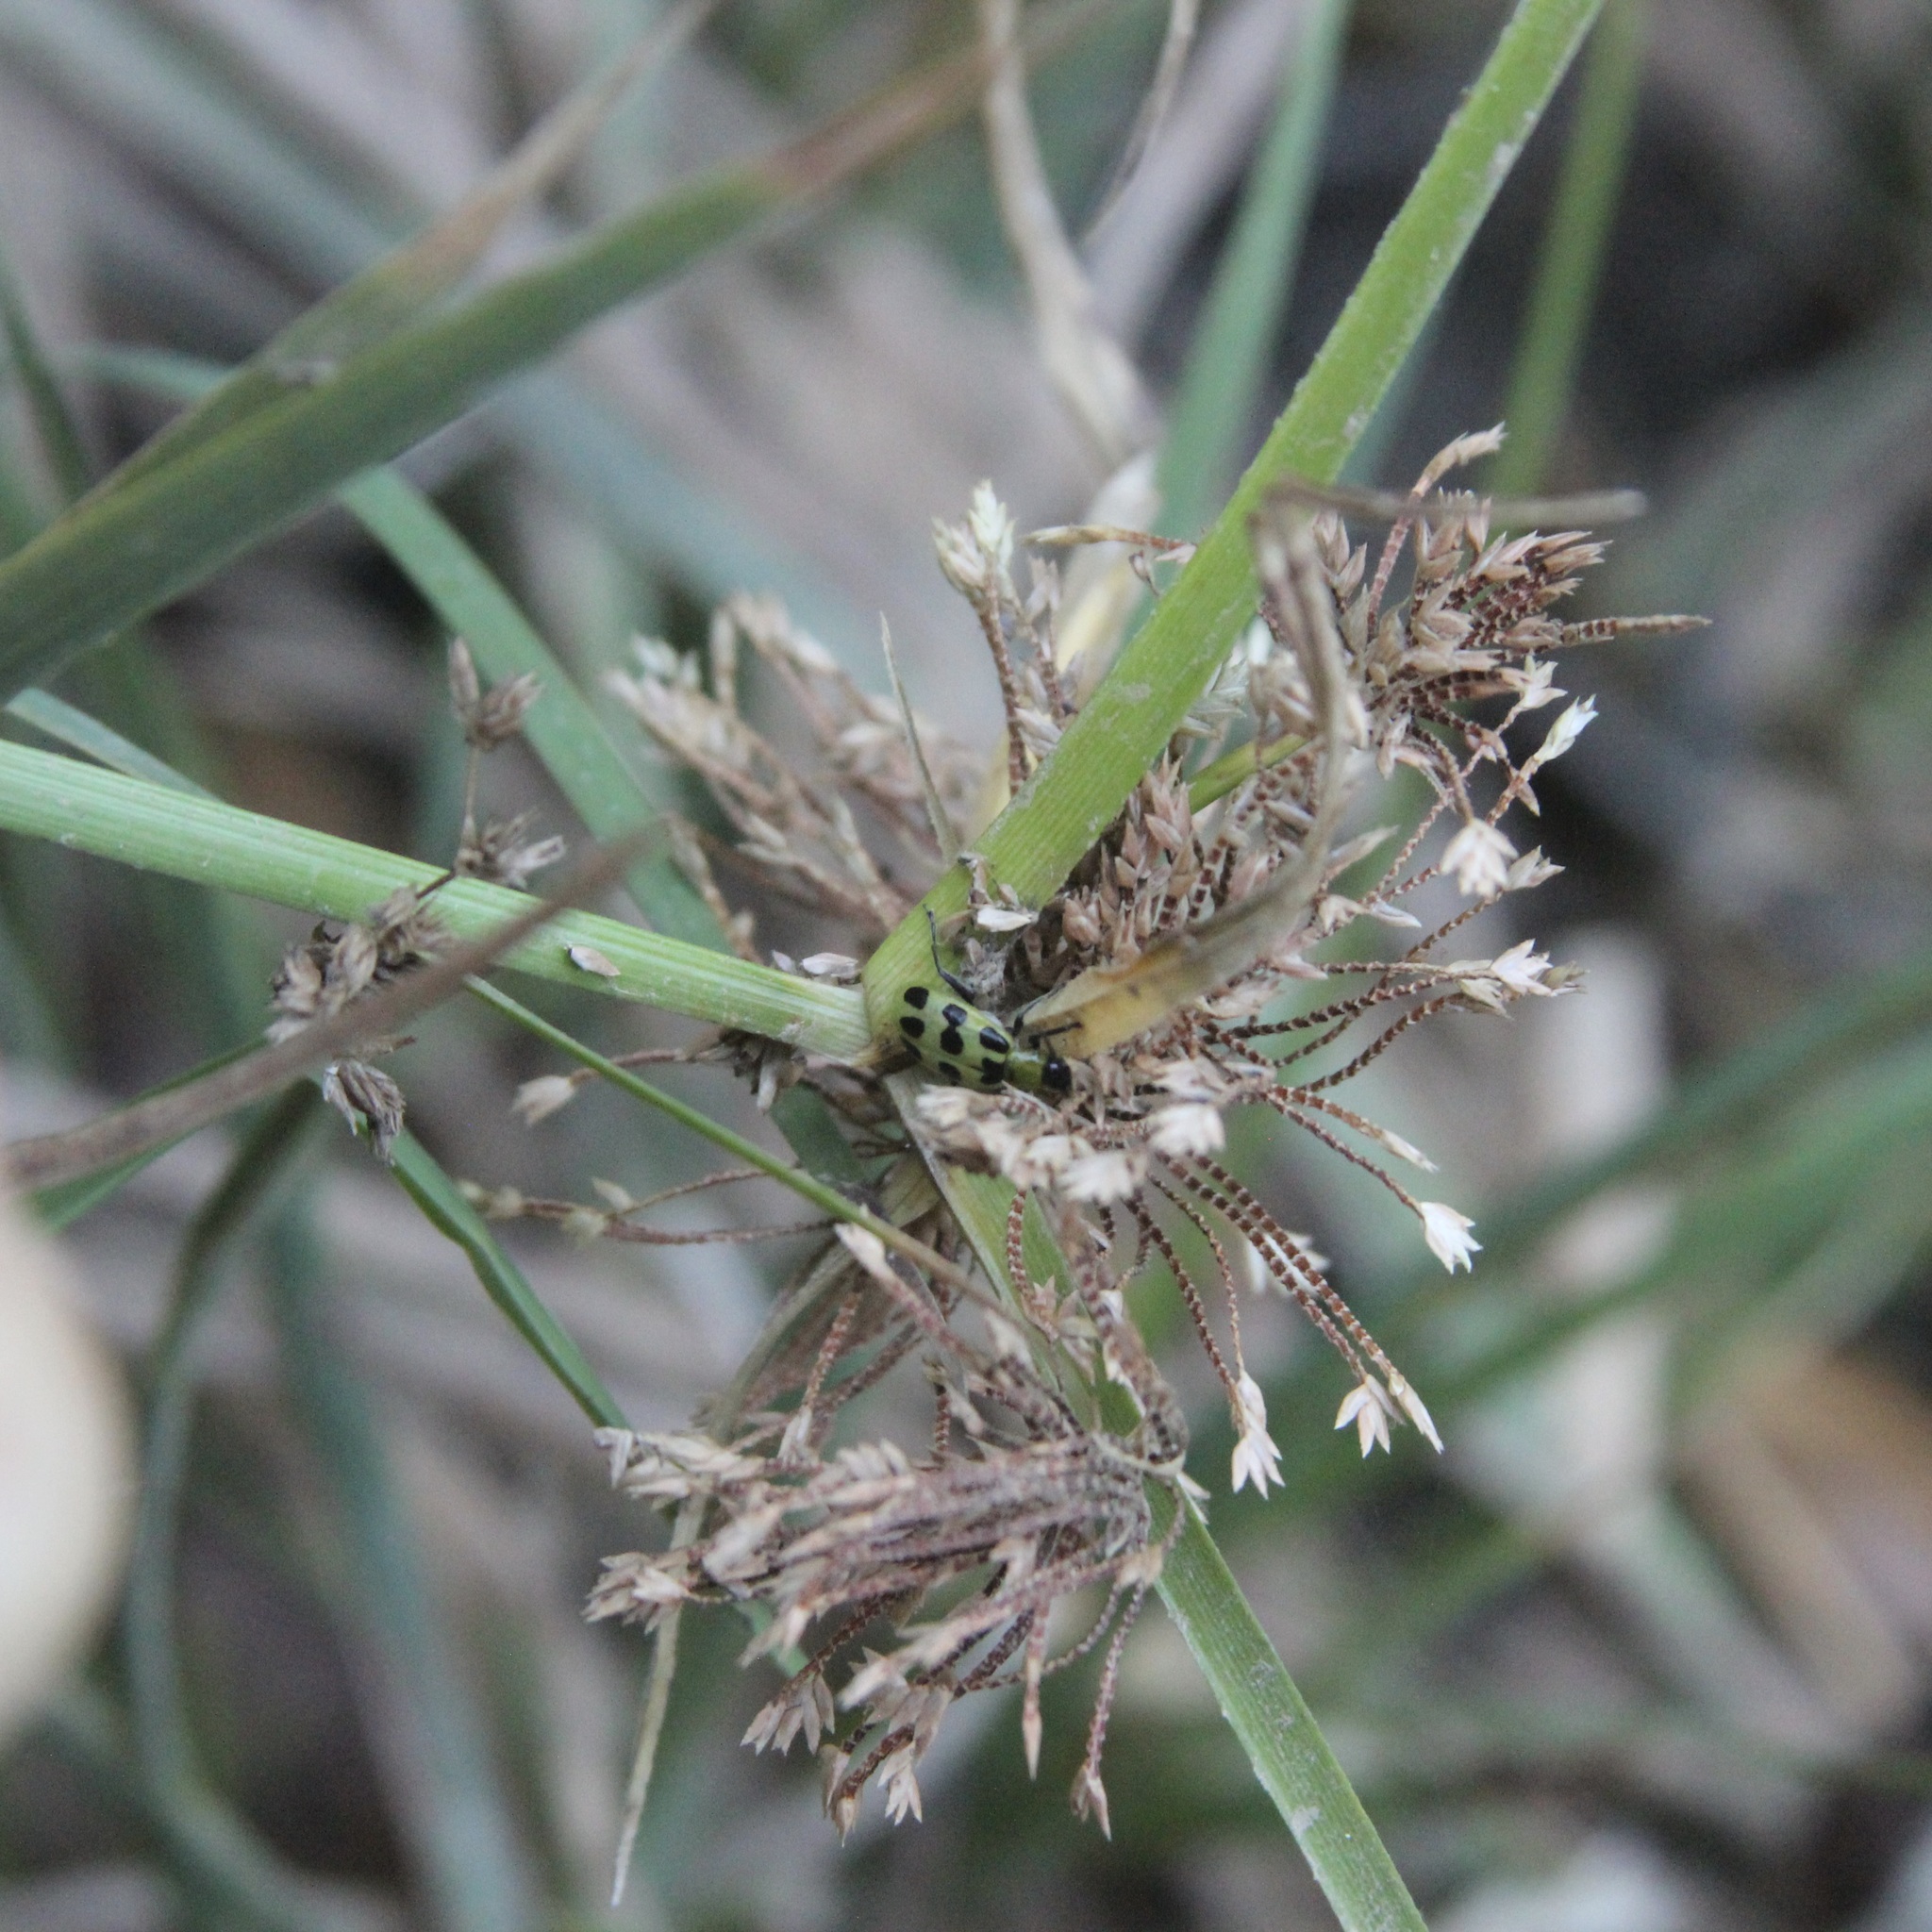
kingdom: Animalia
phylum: Arthropoda
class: Insecta
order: Coleoptera
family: Chrysomelidae
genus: Diabrotica
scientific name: Diabrotica undecimpunctata
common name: Spotted cucumber beetle
